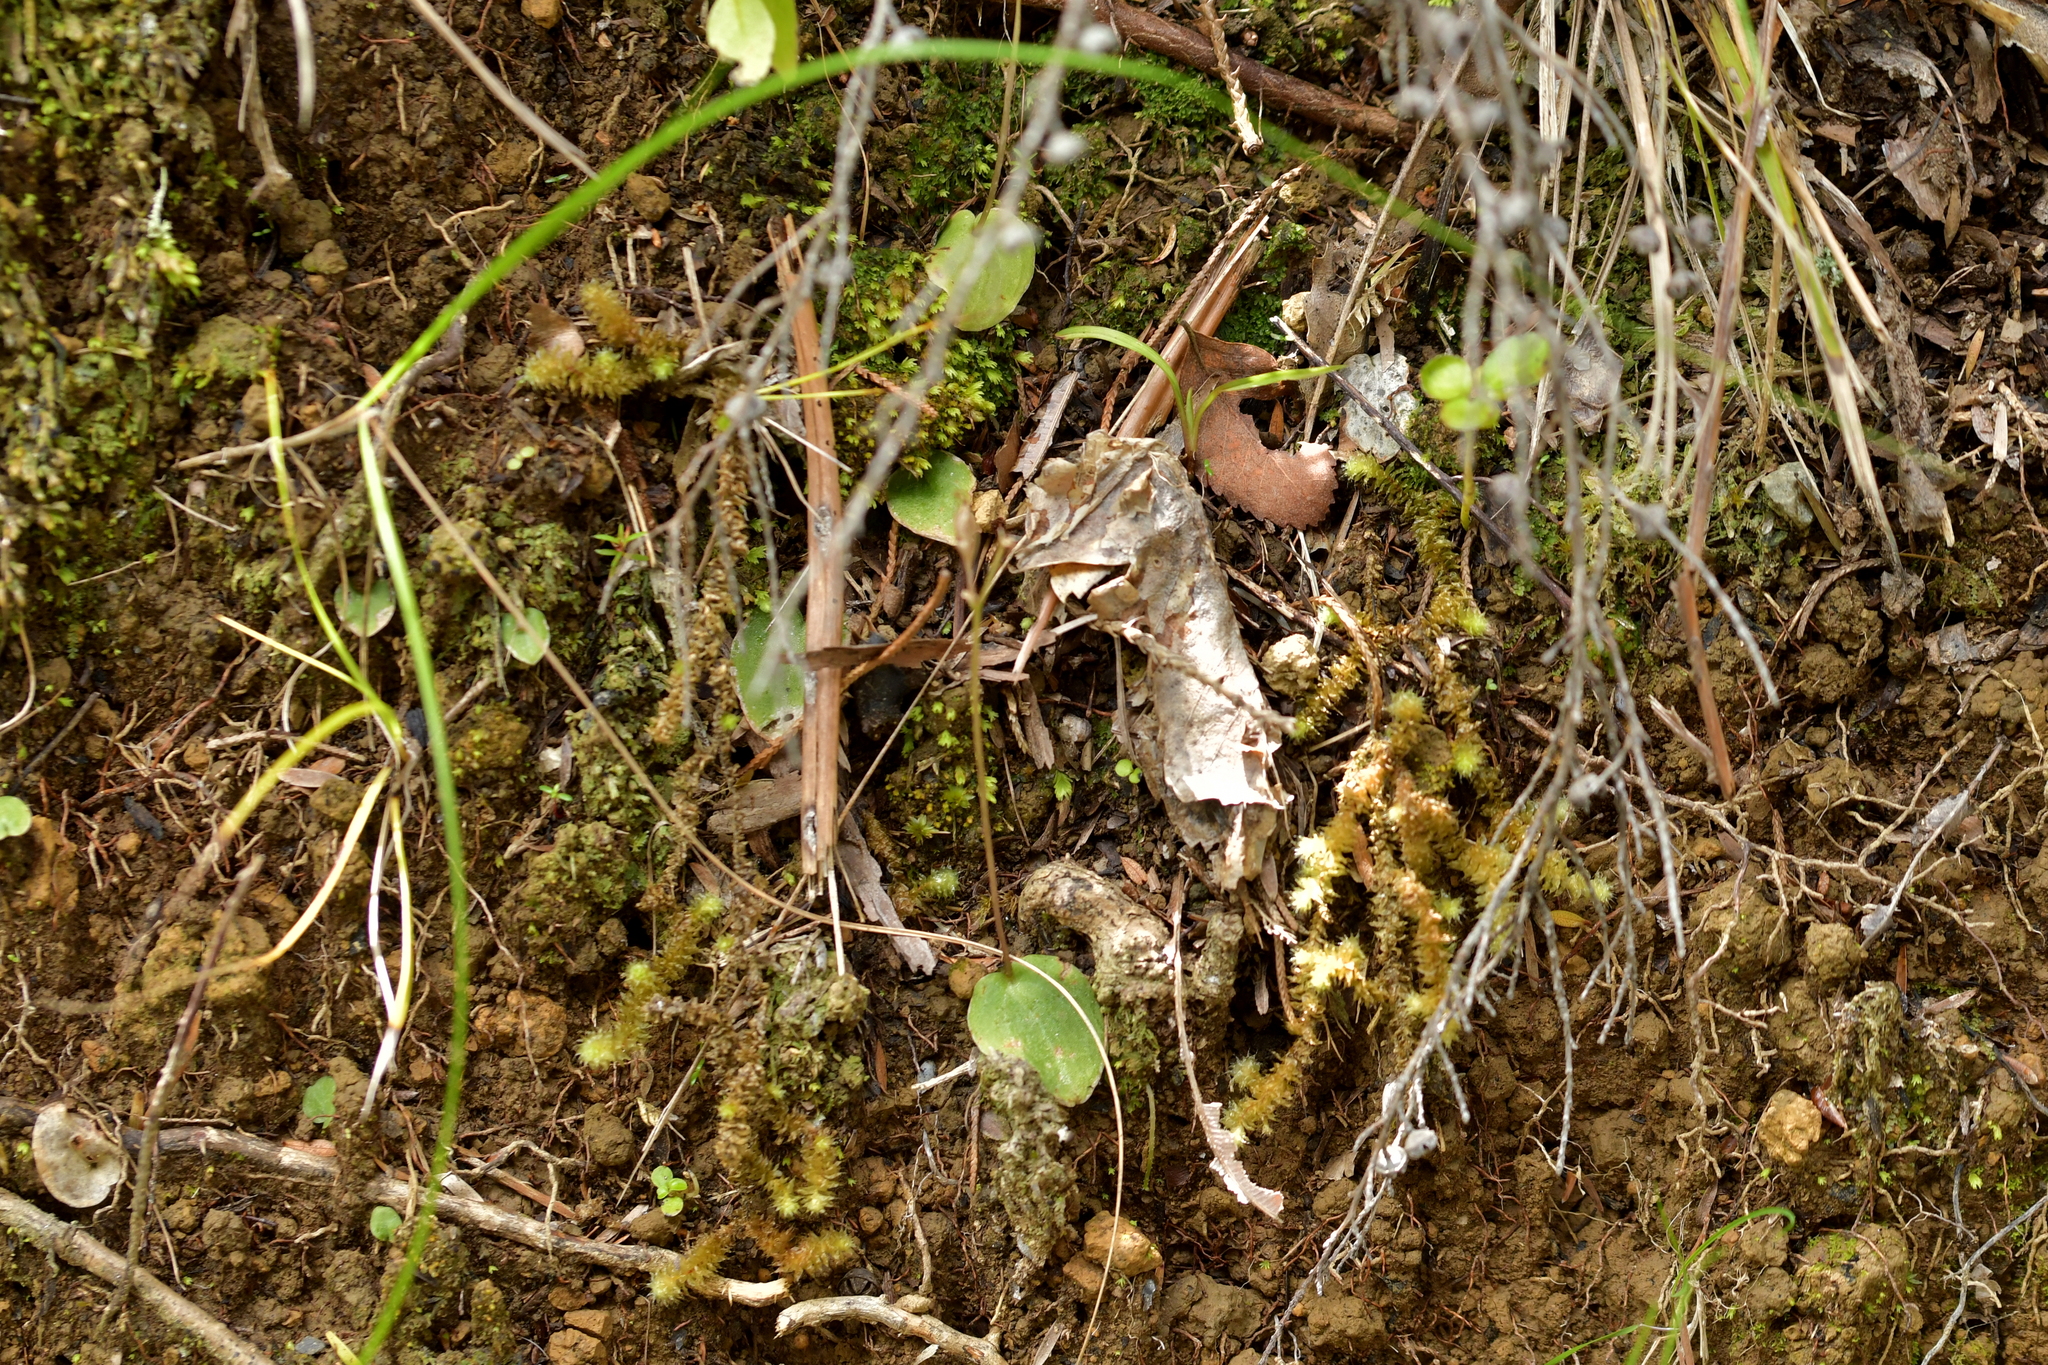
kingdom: Plantae
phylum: Tracheophyta
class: Liliopsida
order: Asparagales
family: Orchidaceae
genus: Cyrtostylis
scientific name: Cyrtostylis rotundifolia
